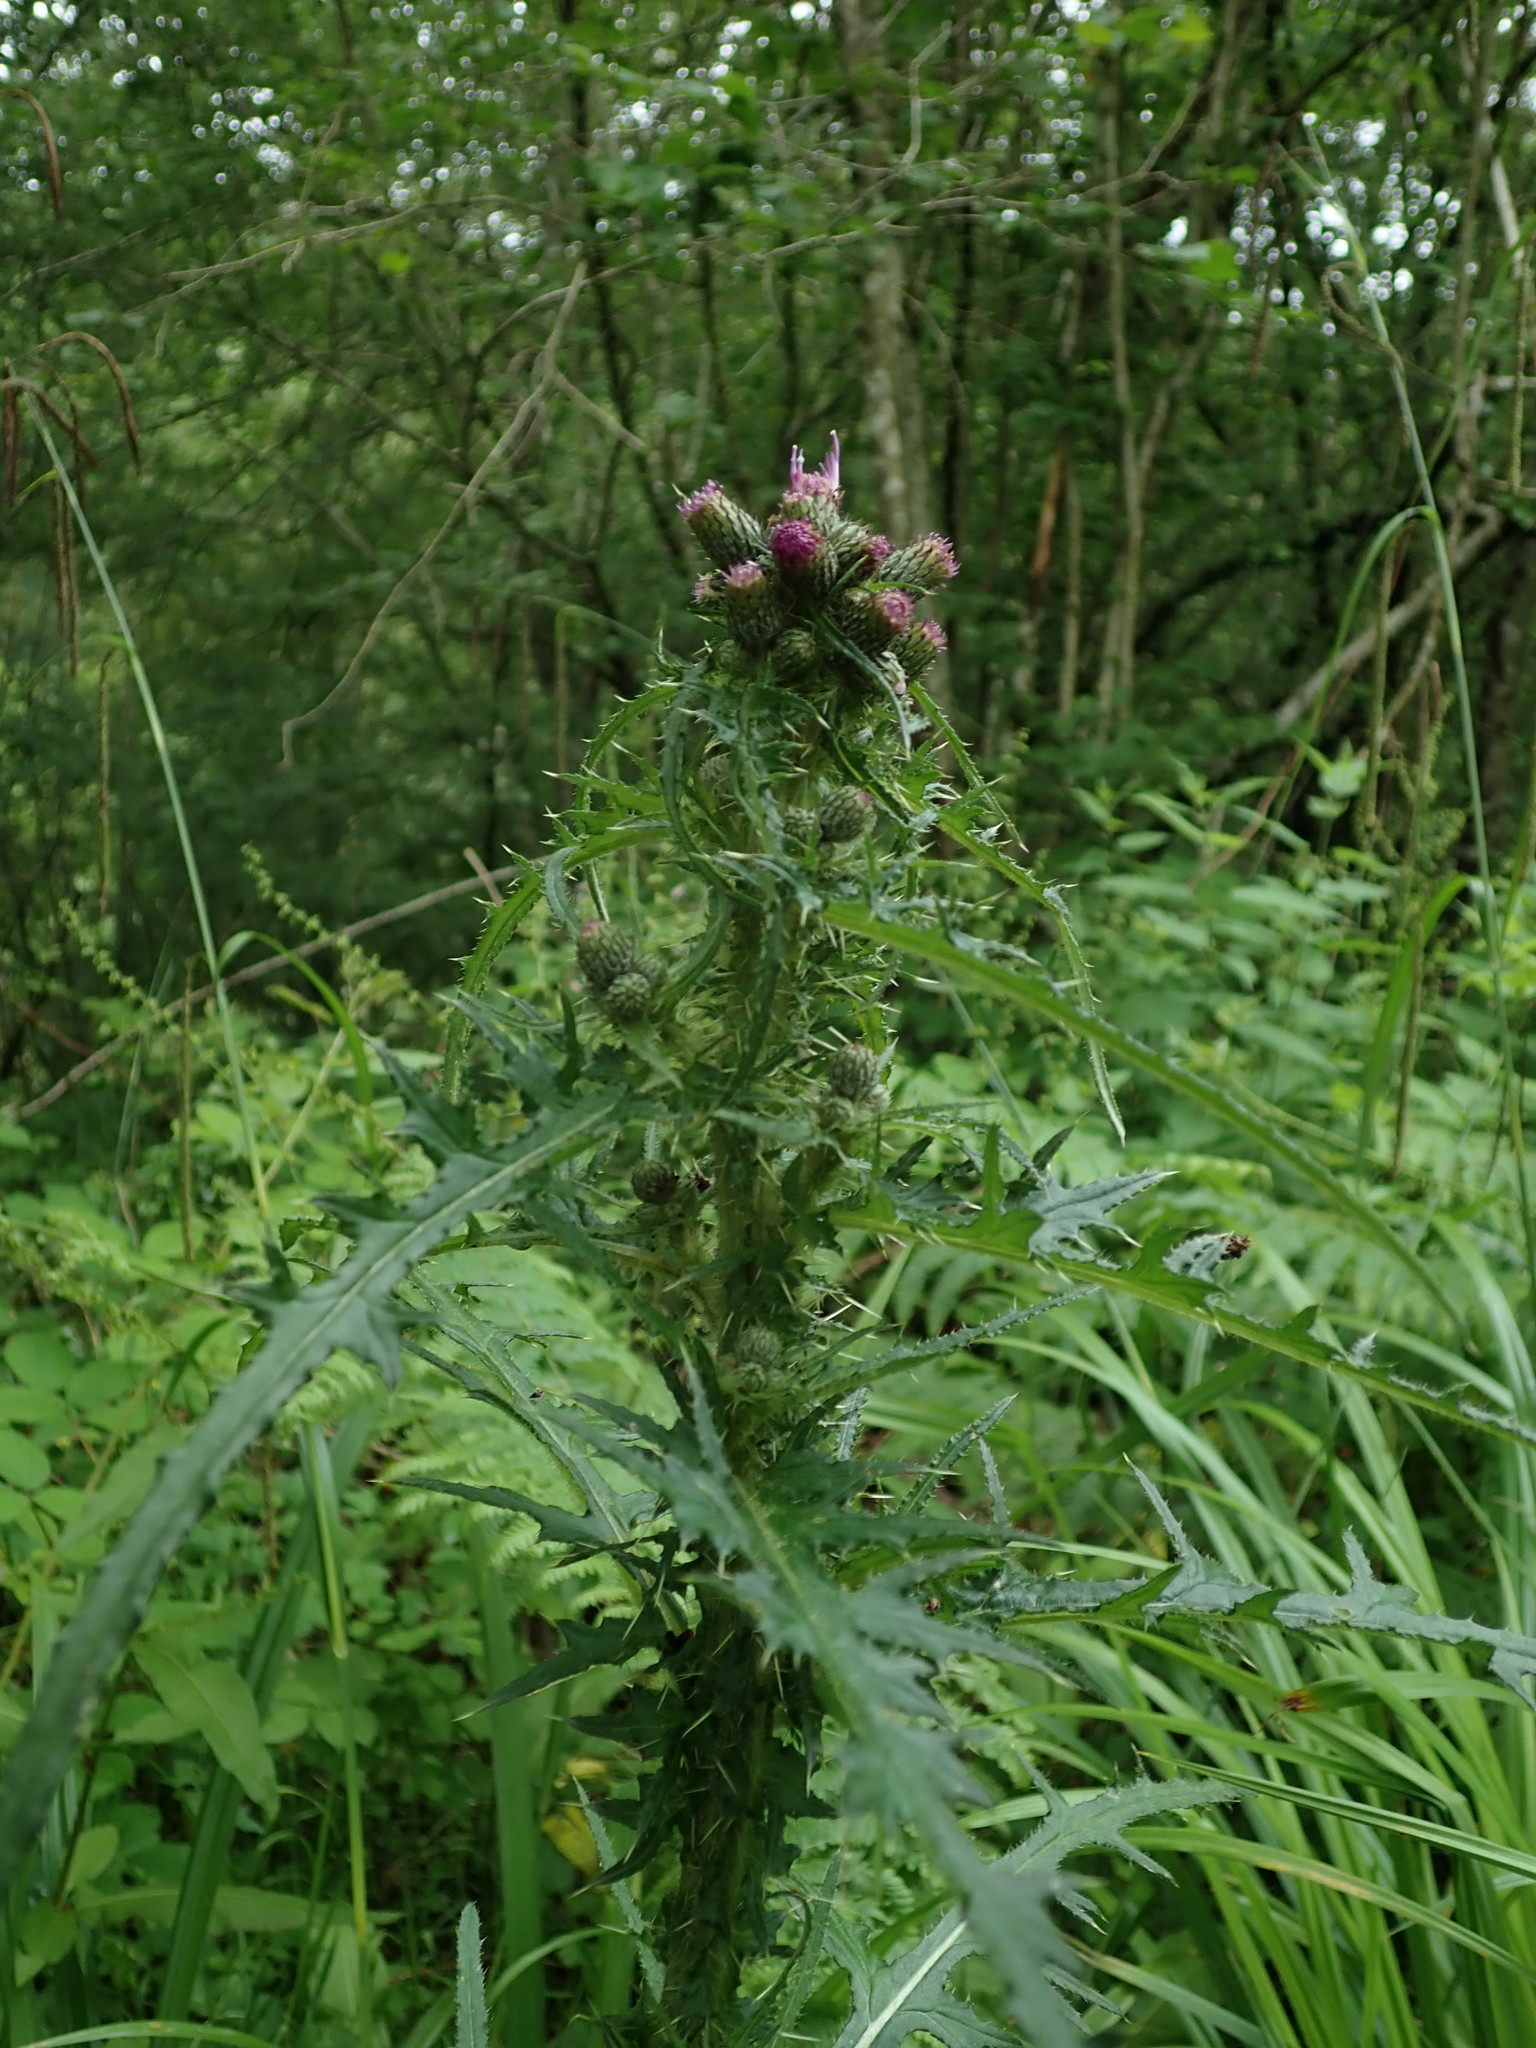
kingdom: Plantae
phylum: Tracheophyta
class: Magnoliopsida
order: Asterales
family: Asteraceae
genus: Cirsium
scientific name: Cirsium palustre
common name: Marsh thistle
